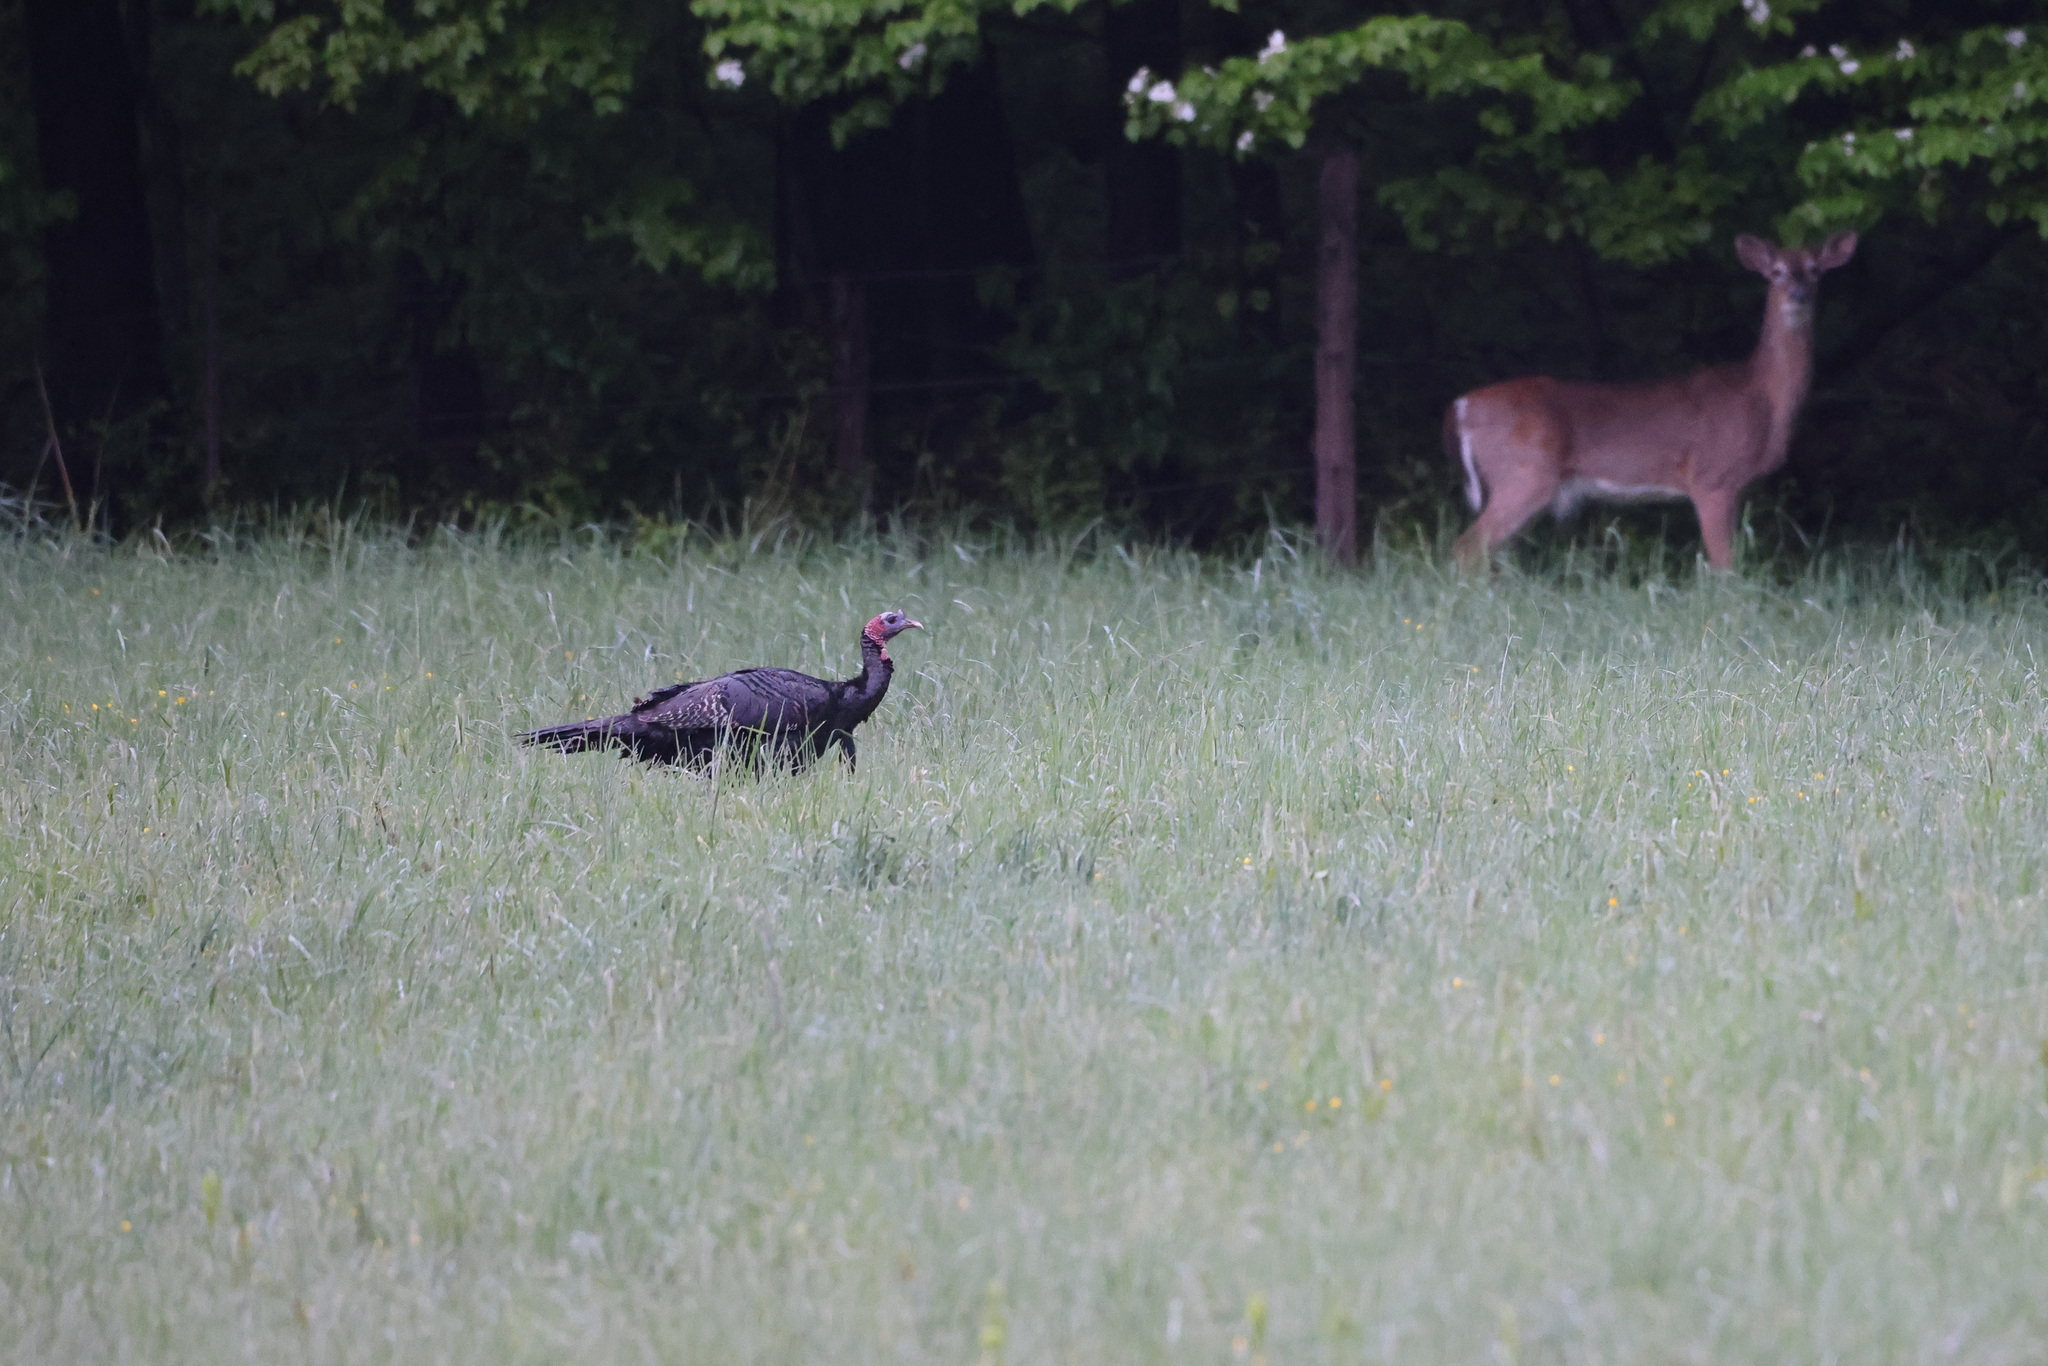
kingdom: Animalia
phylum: Chordata
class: Aves
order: Galliformes
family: Phasianidae
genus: Meleagris
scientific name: Meleagris gallopavo
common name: Wild turkey
